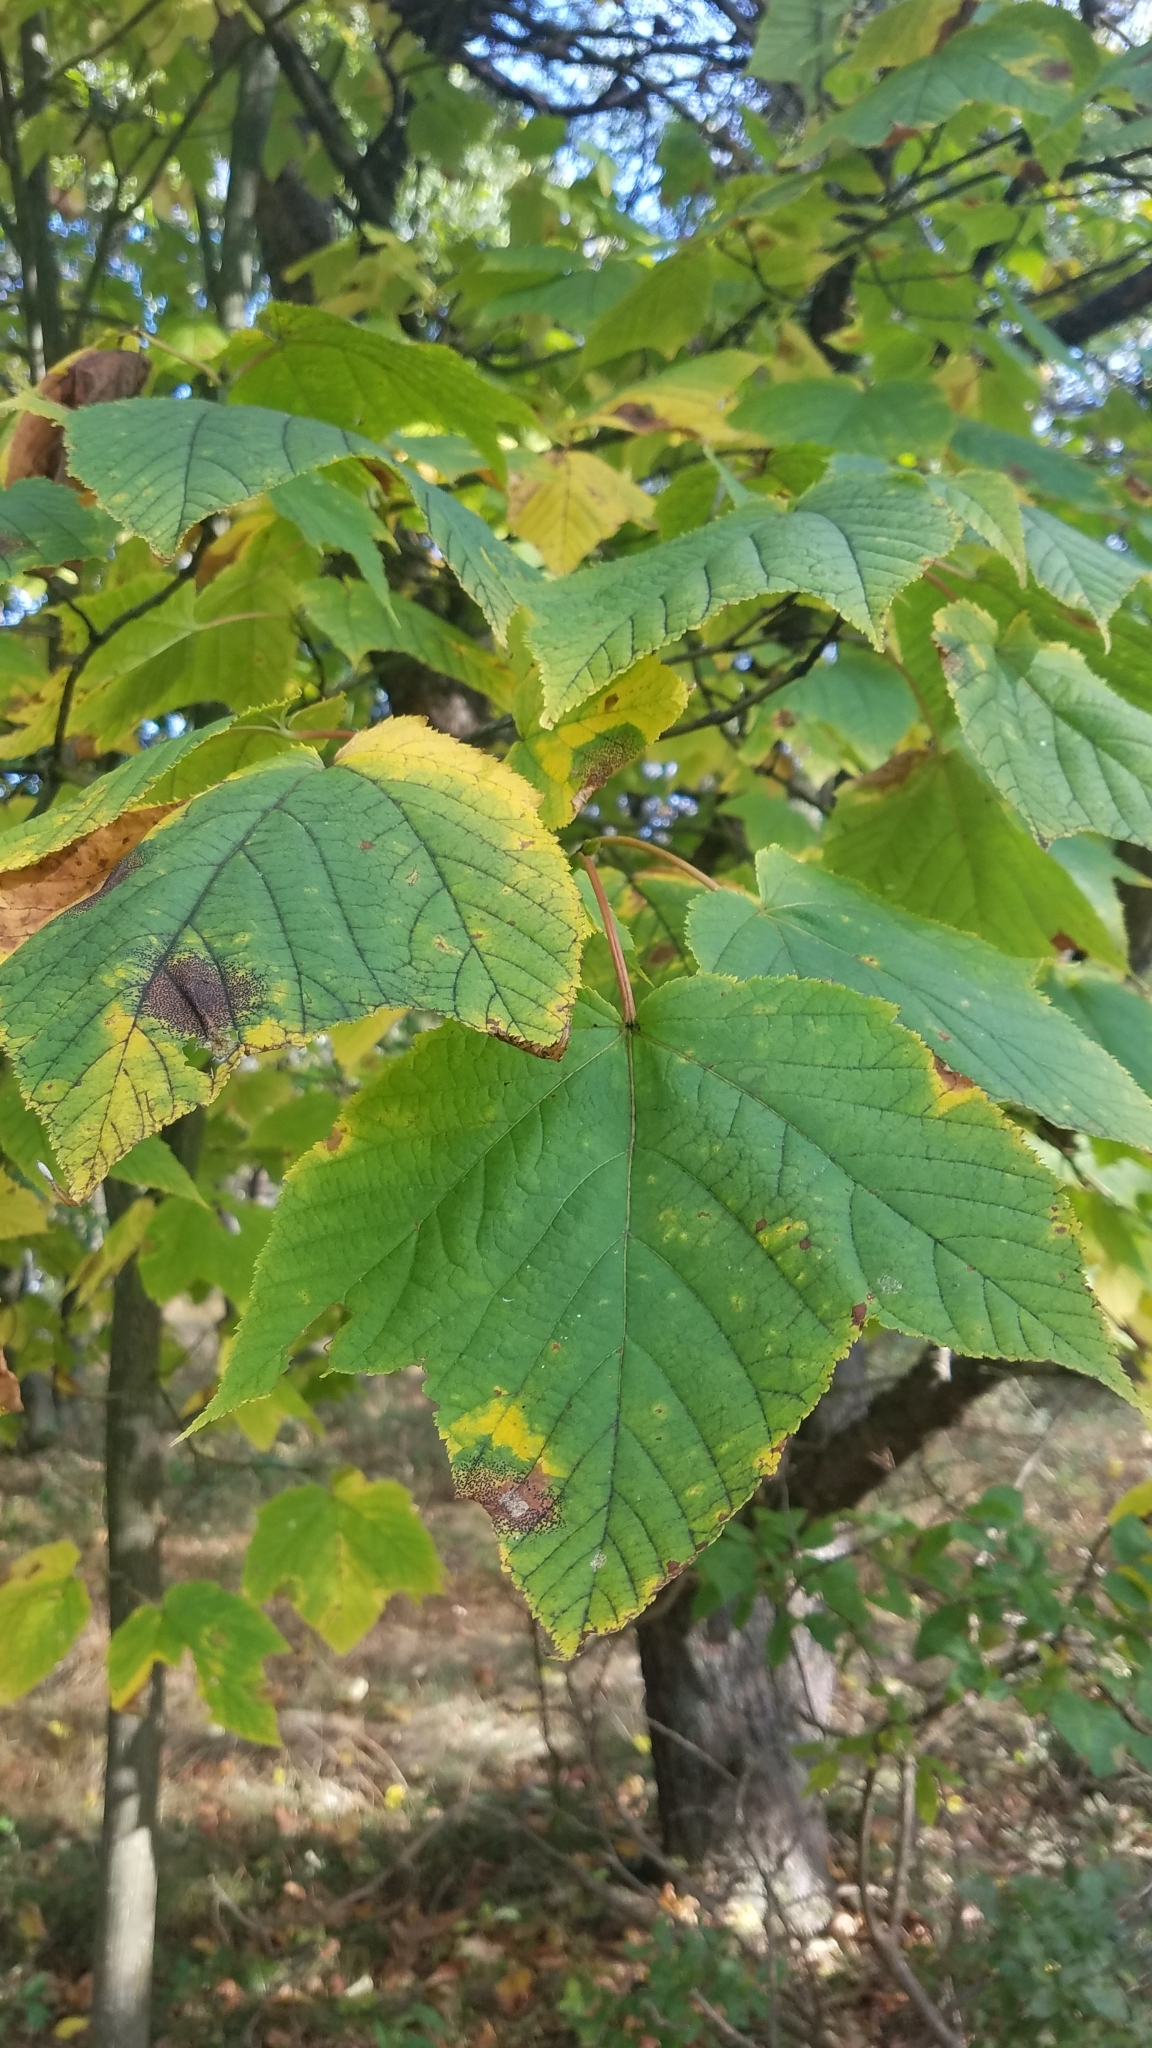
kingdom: Plantae
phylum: Tracheophyta
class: Magnoliopsida
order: Sapindales
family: Sapindaceae
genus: Acer
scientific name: Acer pensylvanicum
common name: Moosewood
